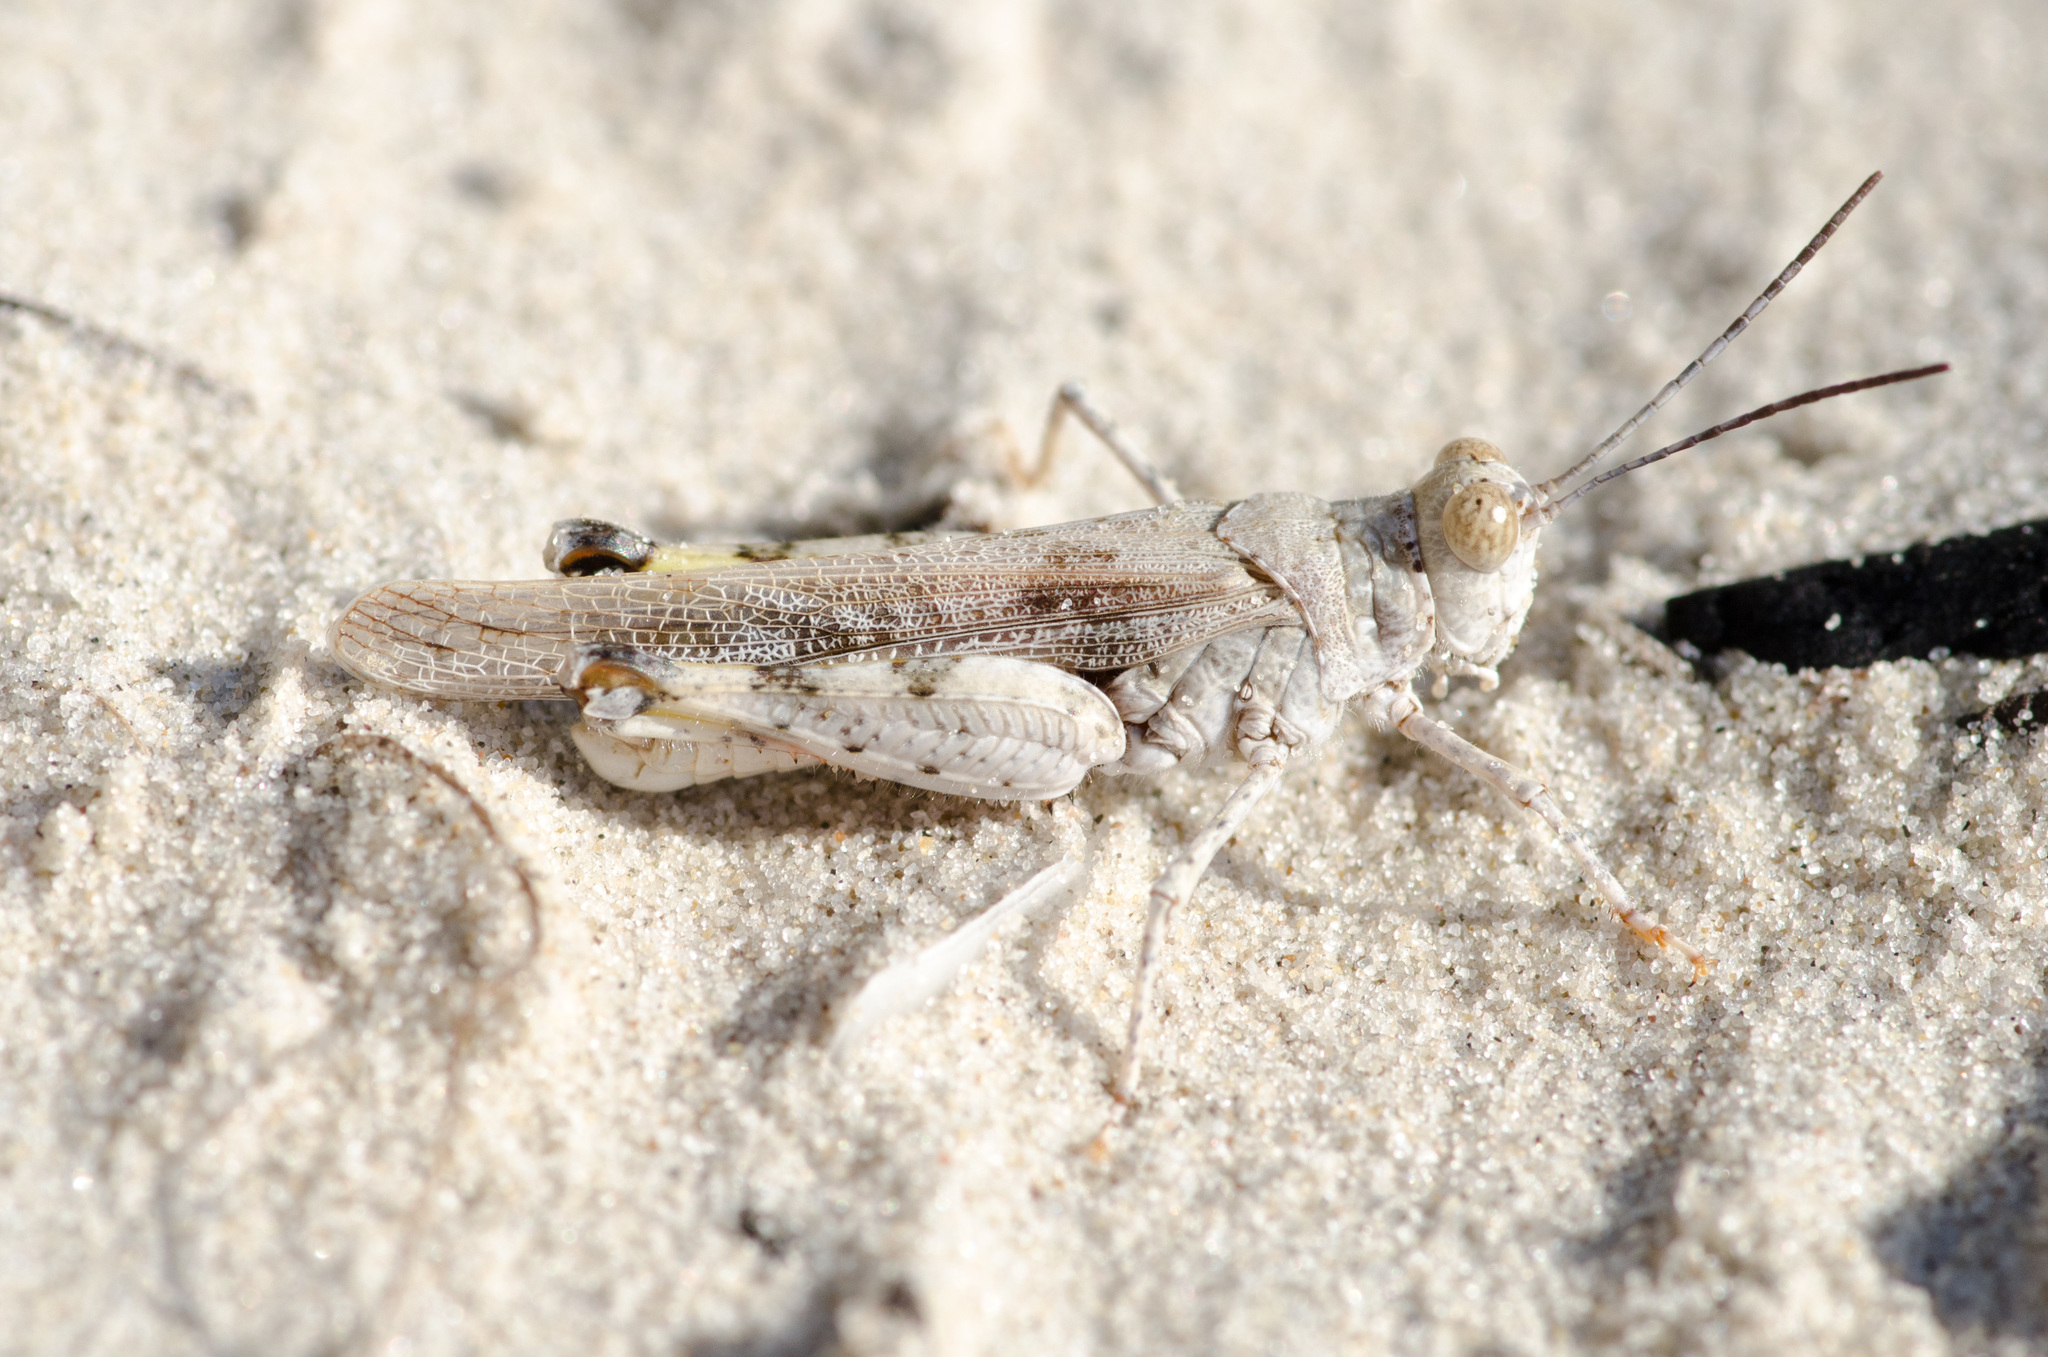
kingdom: Animalia
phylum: Arthropoda
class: Insecta
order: Orthoptera
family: Acrididae
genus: Heliastus
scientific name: Heliastus subroseus
